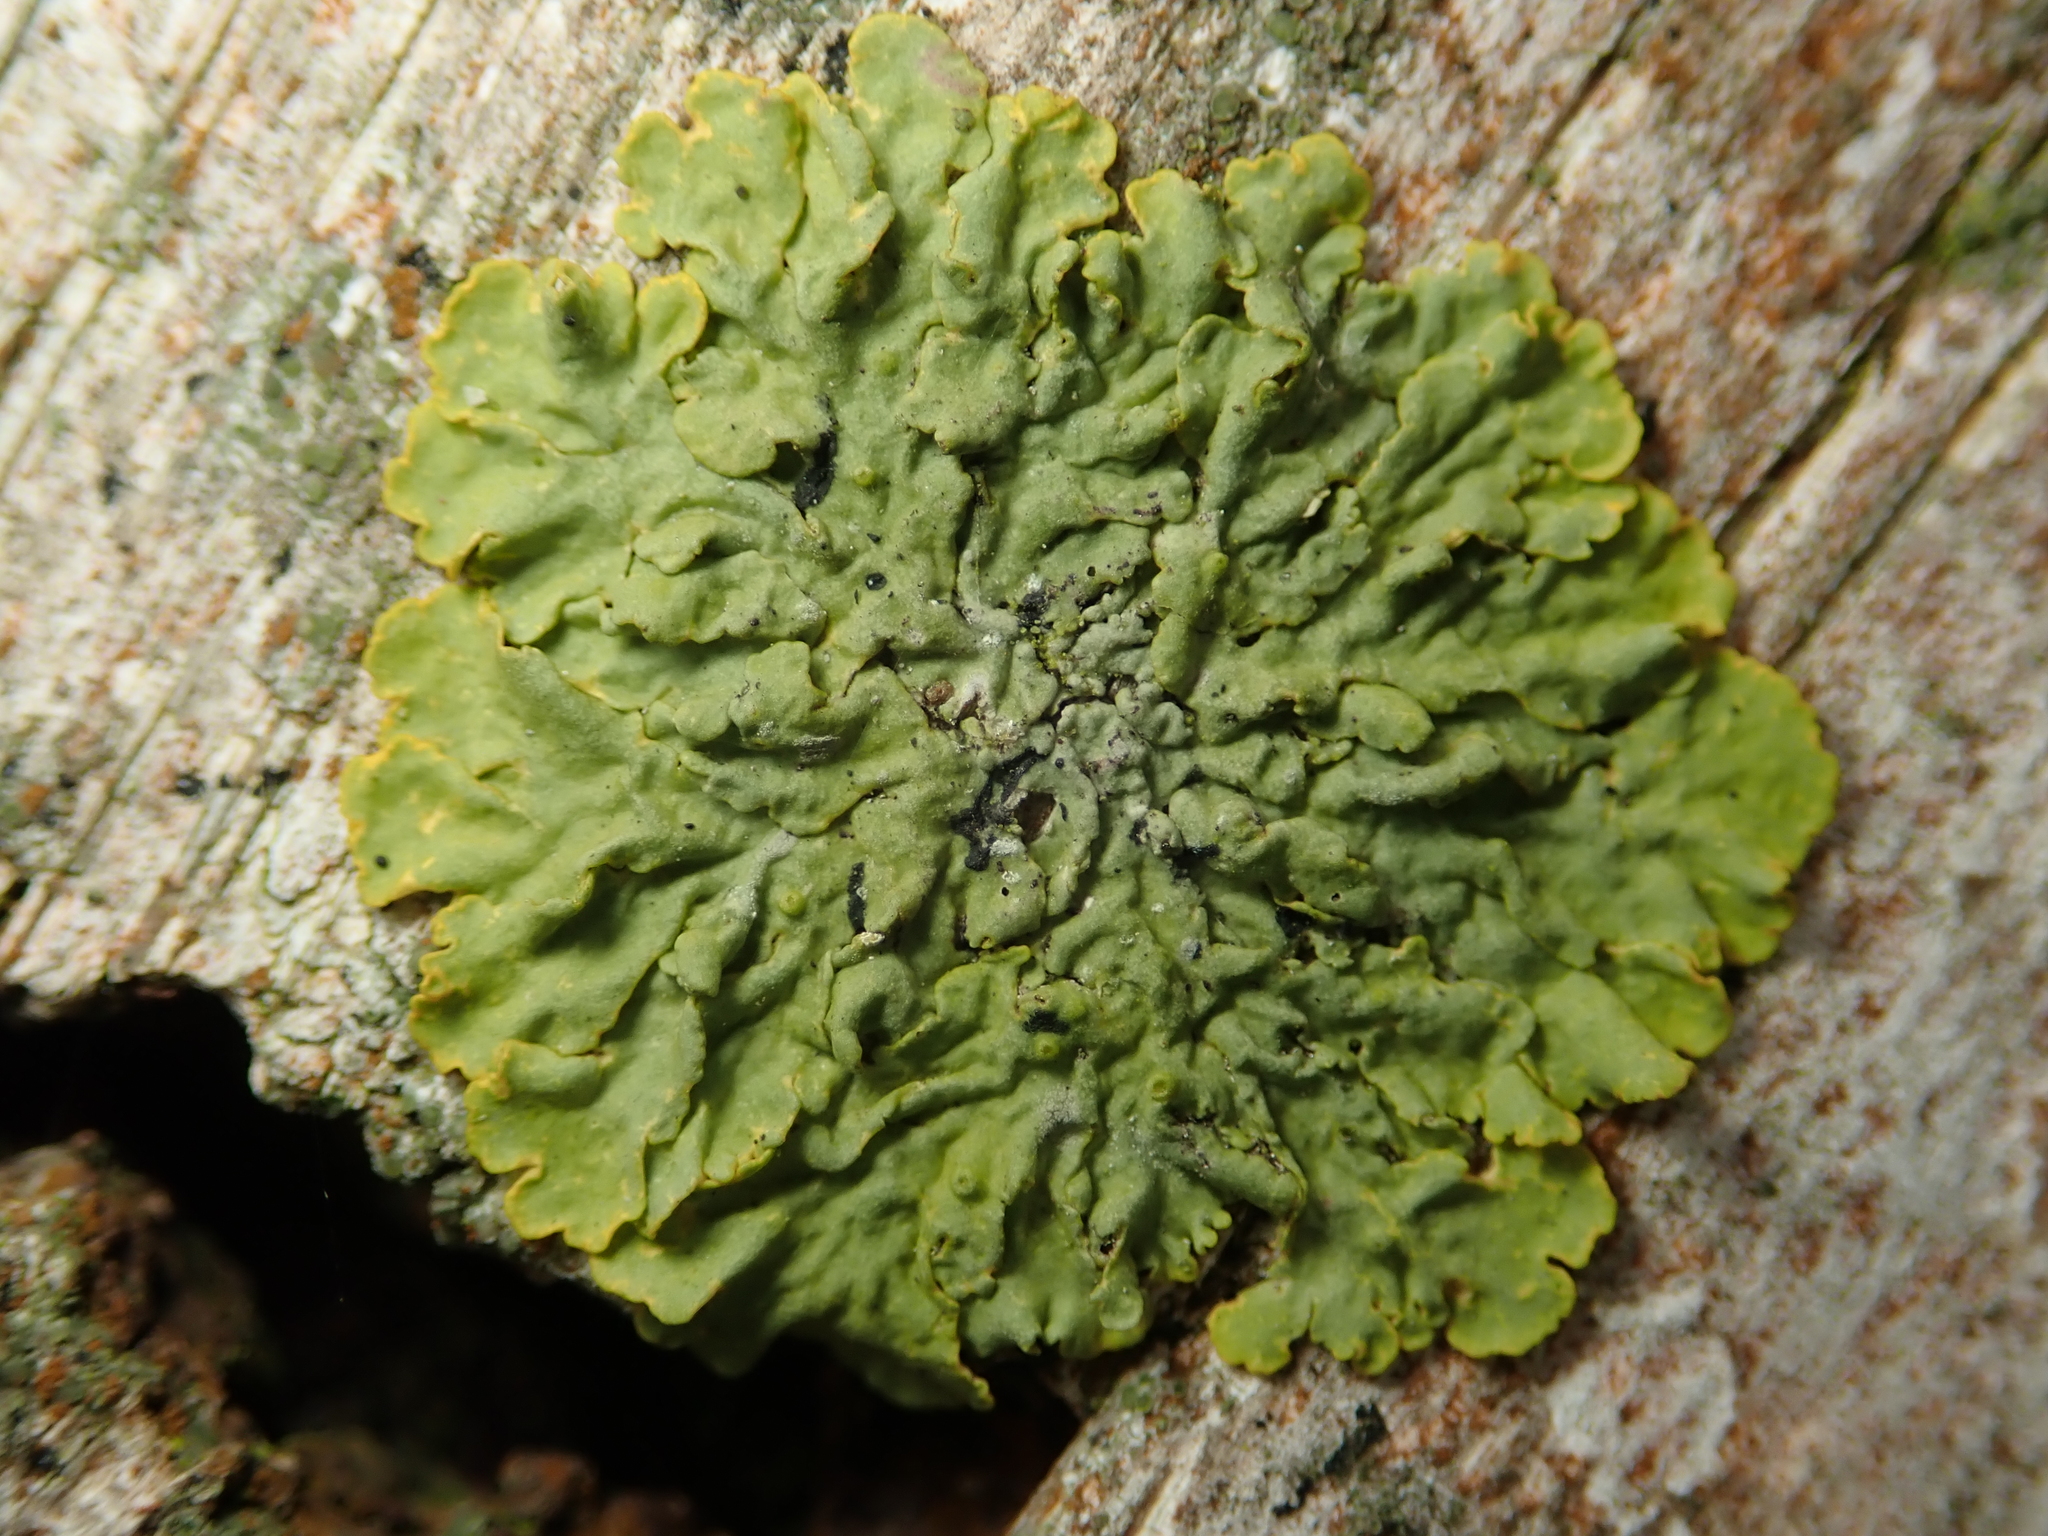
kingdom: Fungi
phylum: Ascomycota
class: Lecanoromycetes
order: Teloschistales
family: Teloschistaceae
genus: Xanthoria
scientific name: Xanthoria parietina
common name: Common orange lichen
